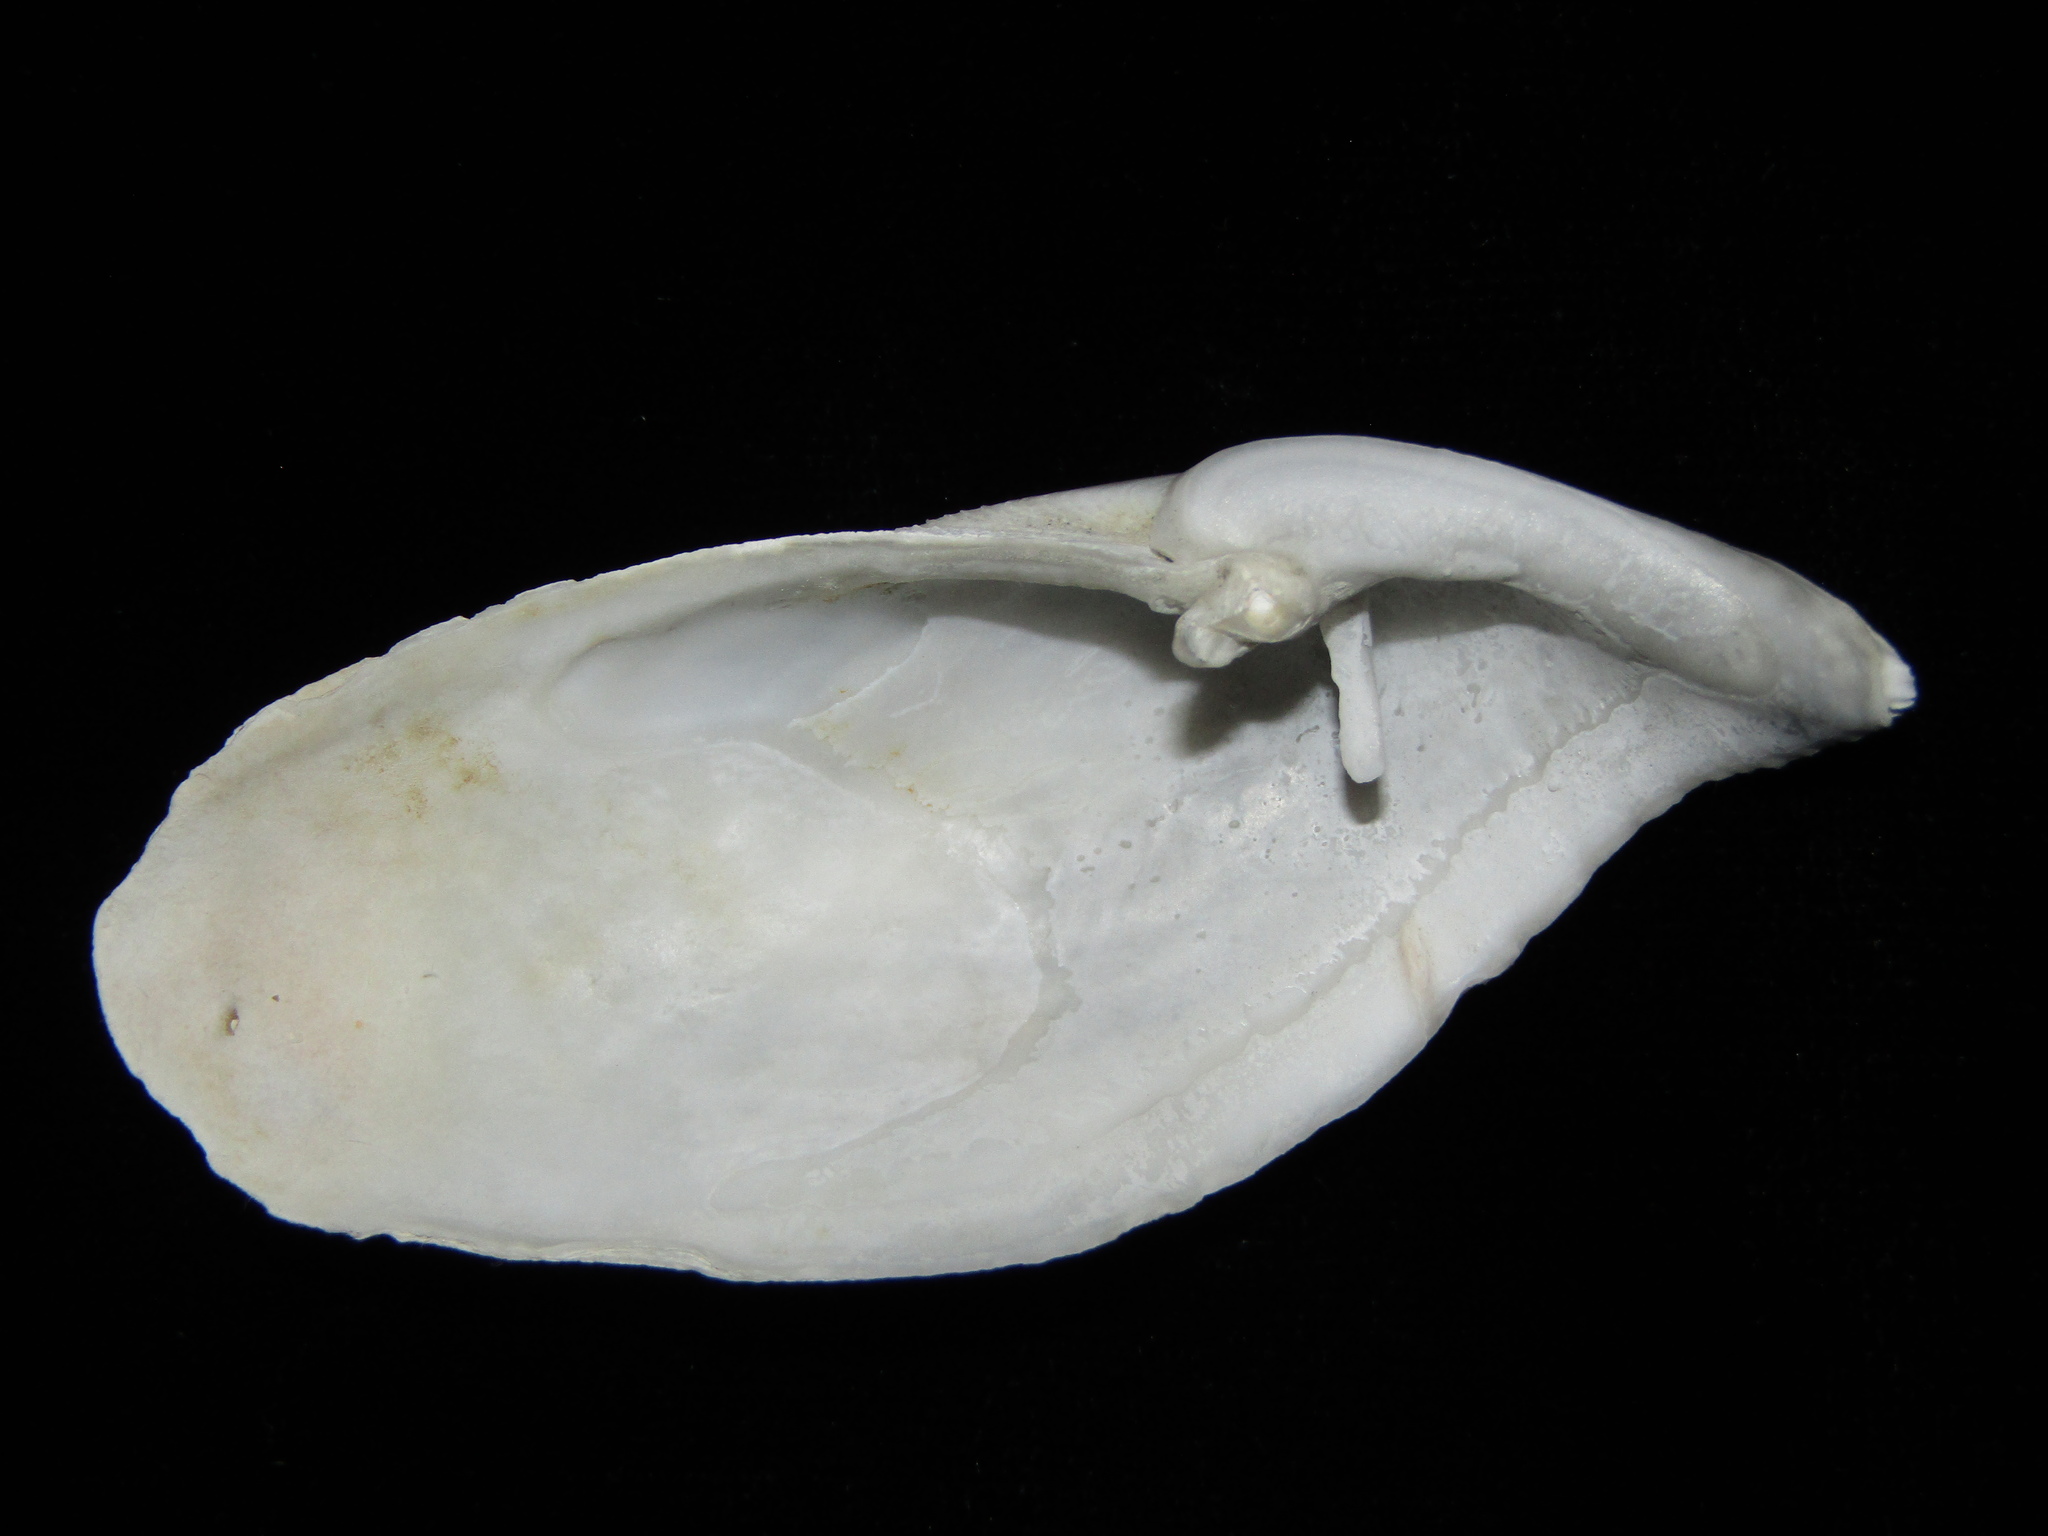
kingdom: Animalia
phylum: Mollusca
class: Bivalvia
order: Myida
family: Pholadidae
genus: Barnea
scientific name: Barnea similis
